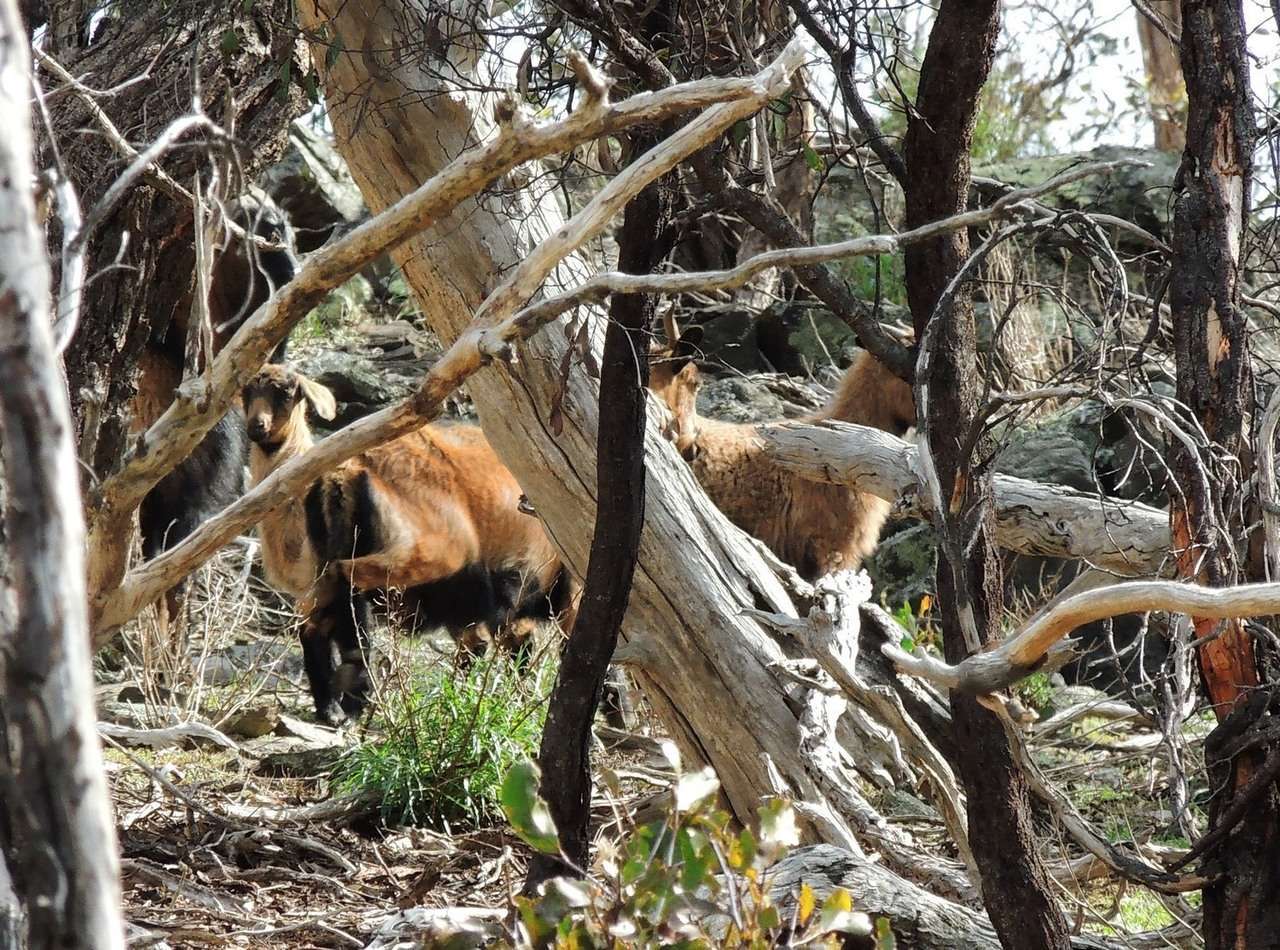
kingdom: Animalia
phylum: Chordata
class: Mammalia
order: Artiodactyla
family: Bovidae
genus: Capra
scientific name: Capra hircus
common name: Domestic goat
